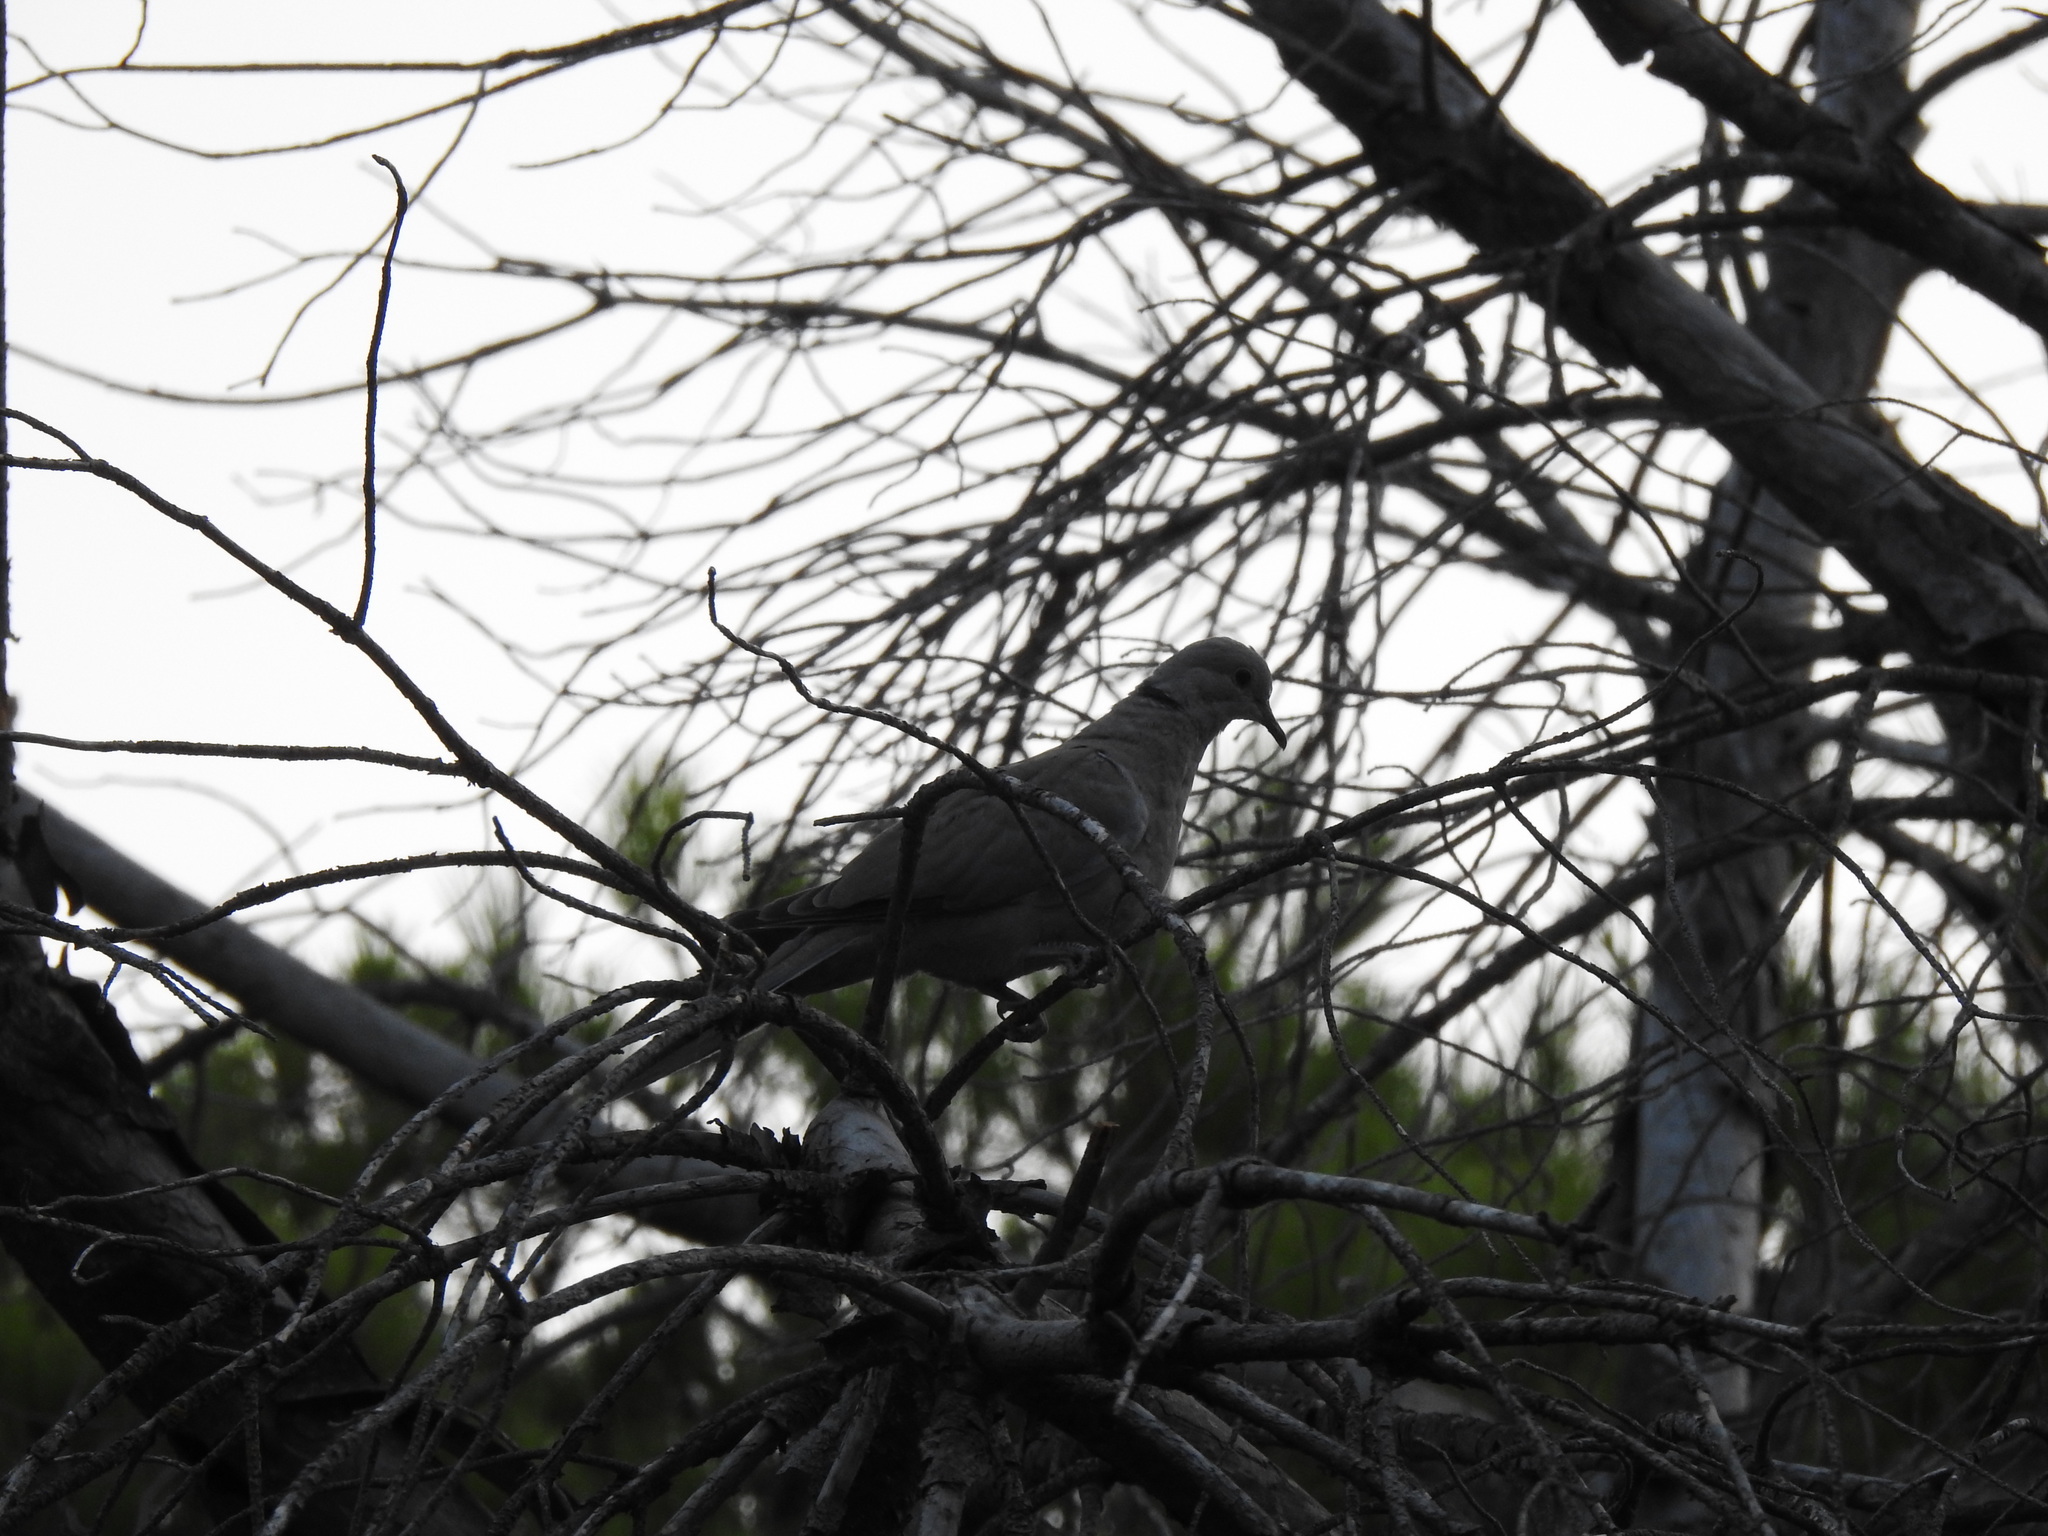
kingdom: Animalia
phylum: Chordata
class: Aves
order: Columbiformes
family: Columbidae
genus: Streptopelia
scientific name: Streptopelia decaocto
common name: Eurasian collared dove
